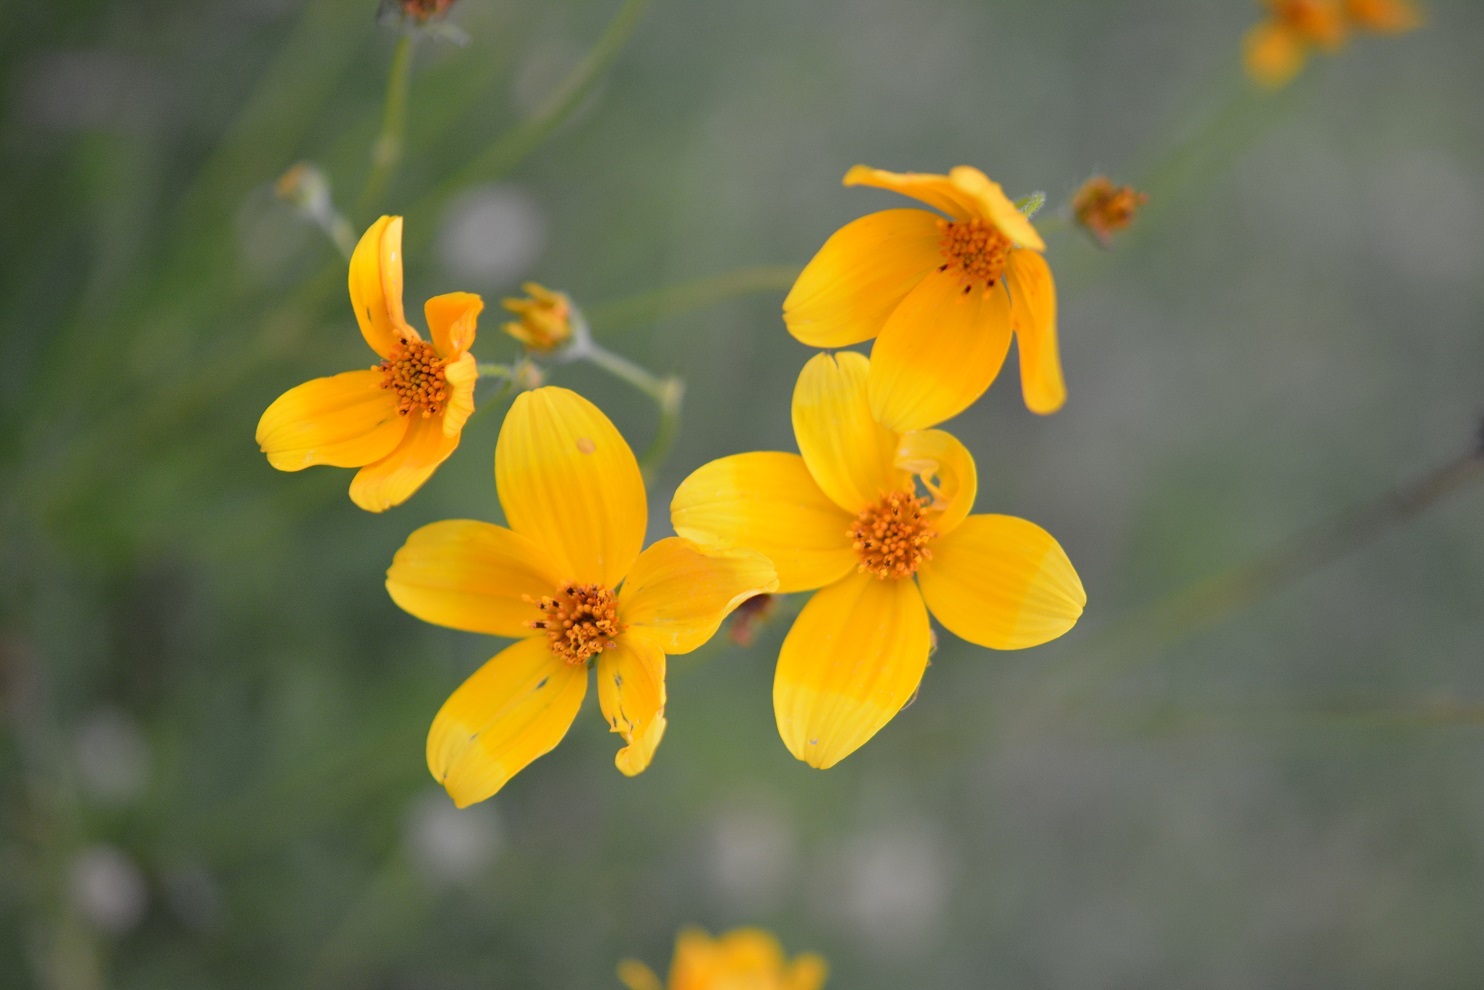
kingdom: Plantae
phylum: Tracheophyta
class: Magnoliopsida
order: Asterales
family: Asteraceae
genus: Bidens
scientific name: Bidens aurea
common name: Arizona beggar-ticks
